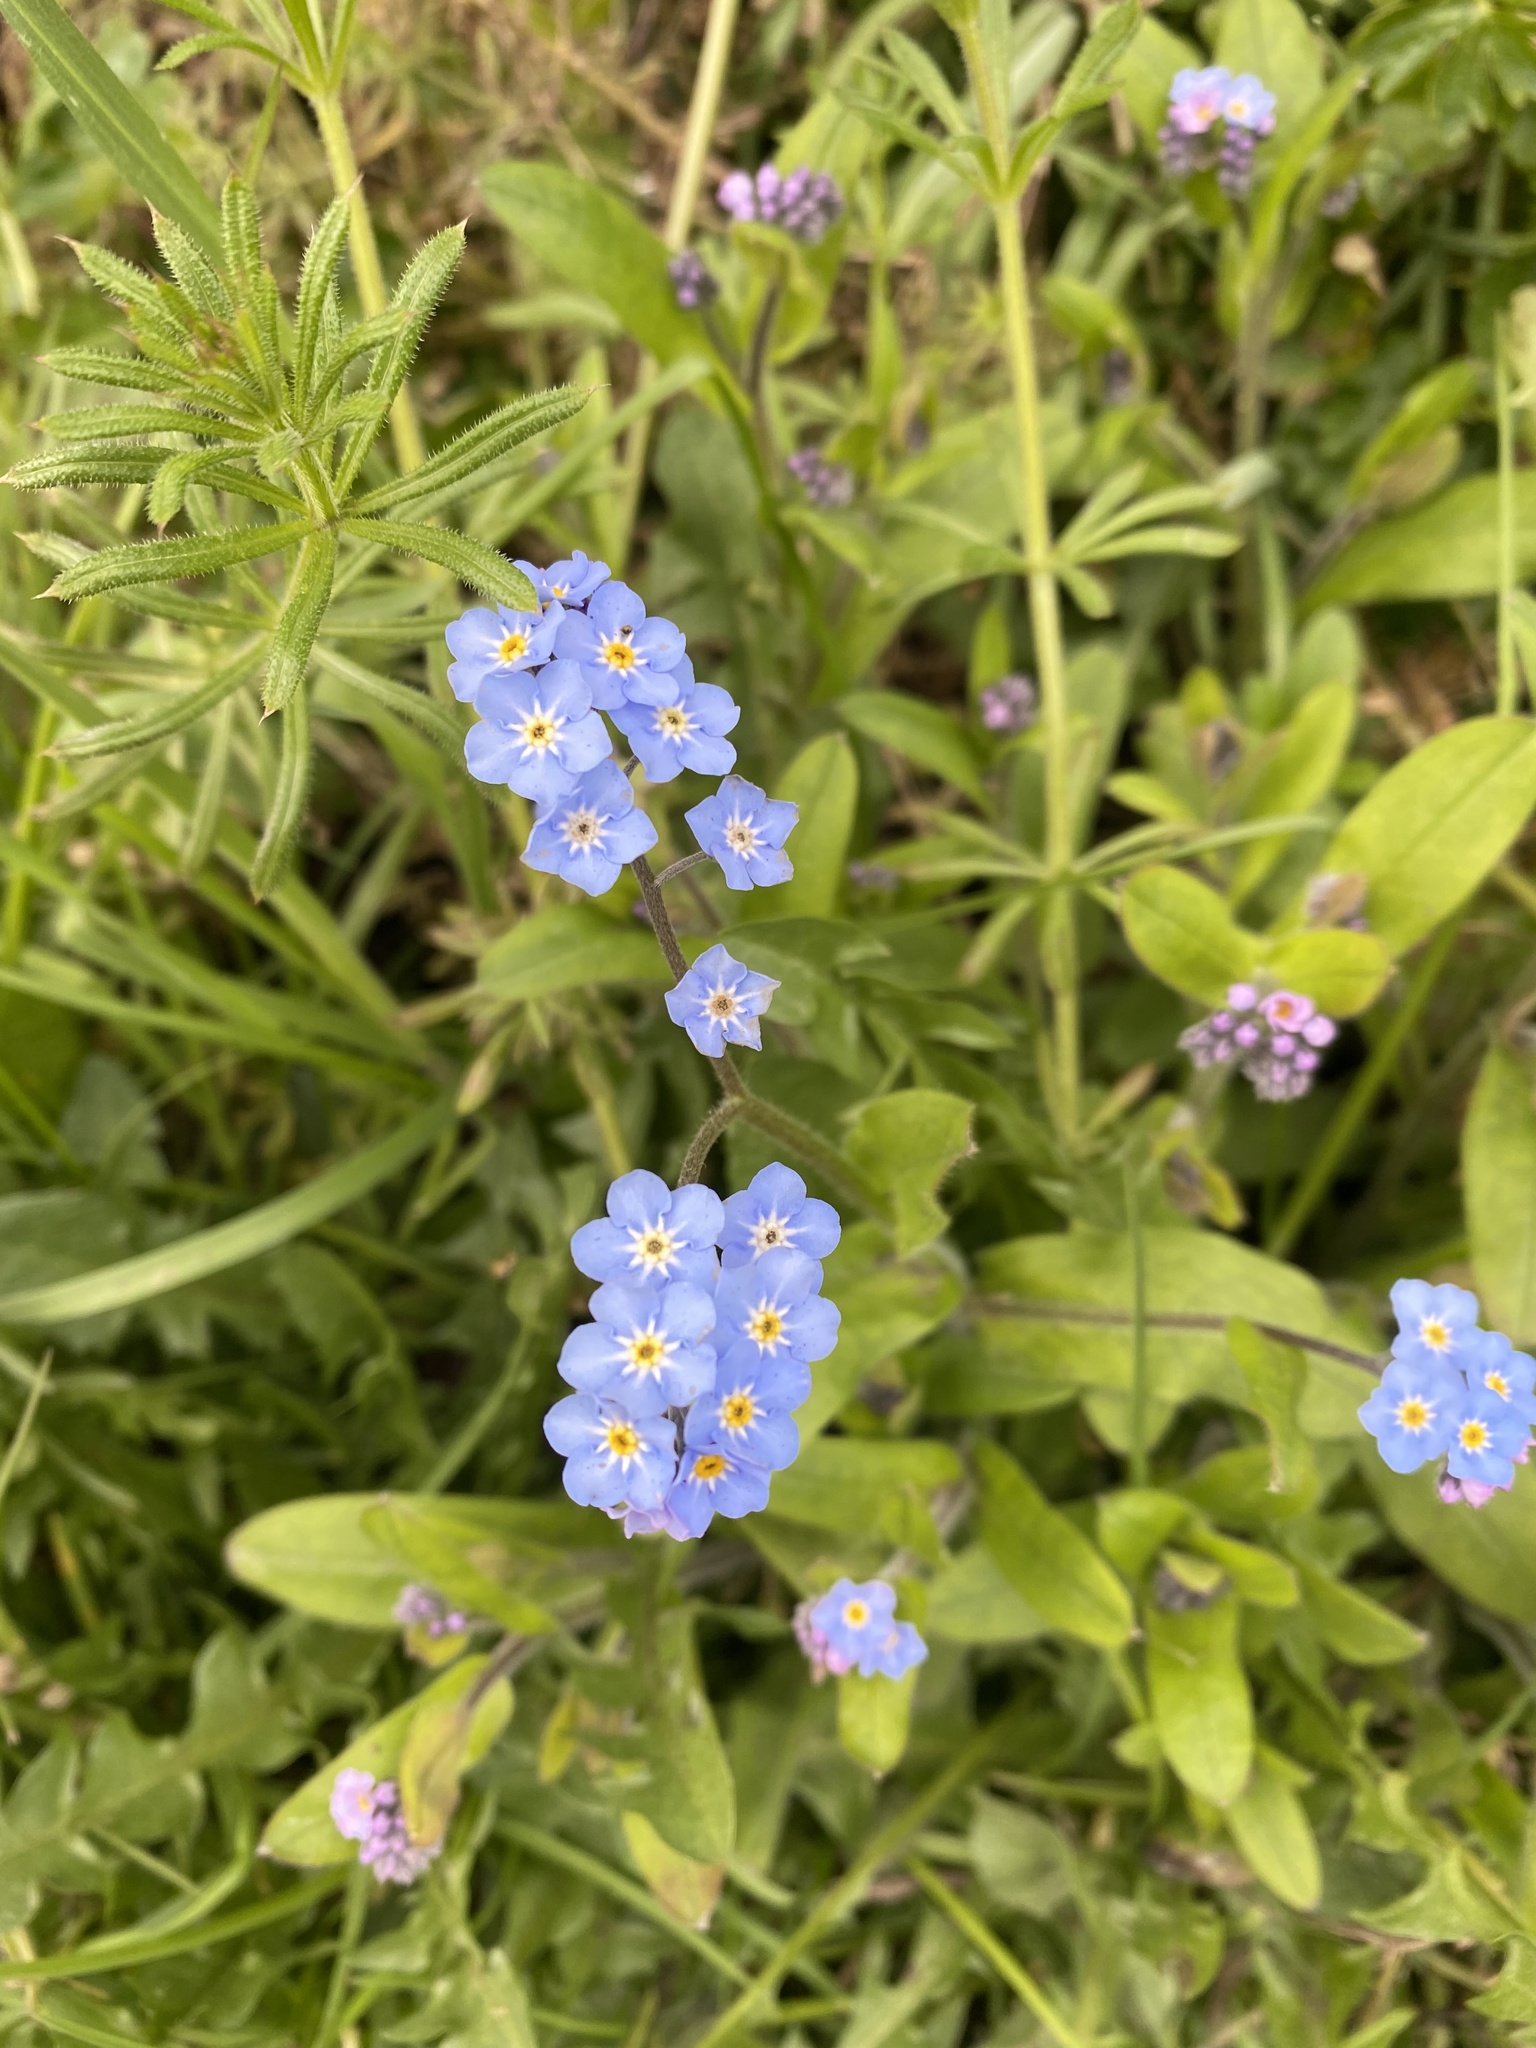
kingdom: Plantae
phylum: Tracheophyta
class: Magnoliopsida
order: Boraginales
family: Boraginaceae
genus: Myosotis
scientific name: Myosotis sylvatica
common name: Wood forget-me-not
